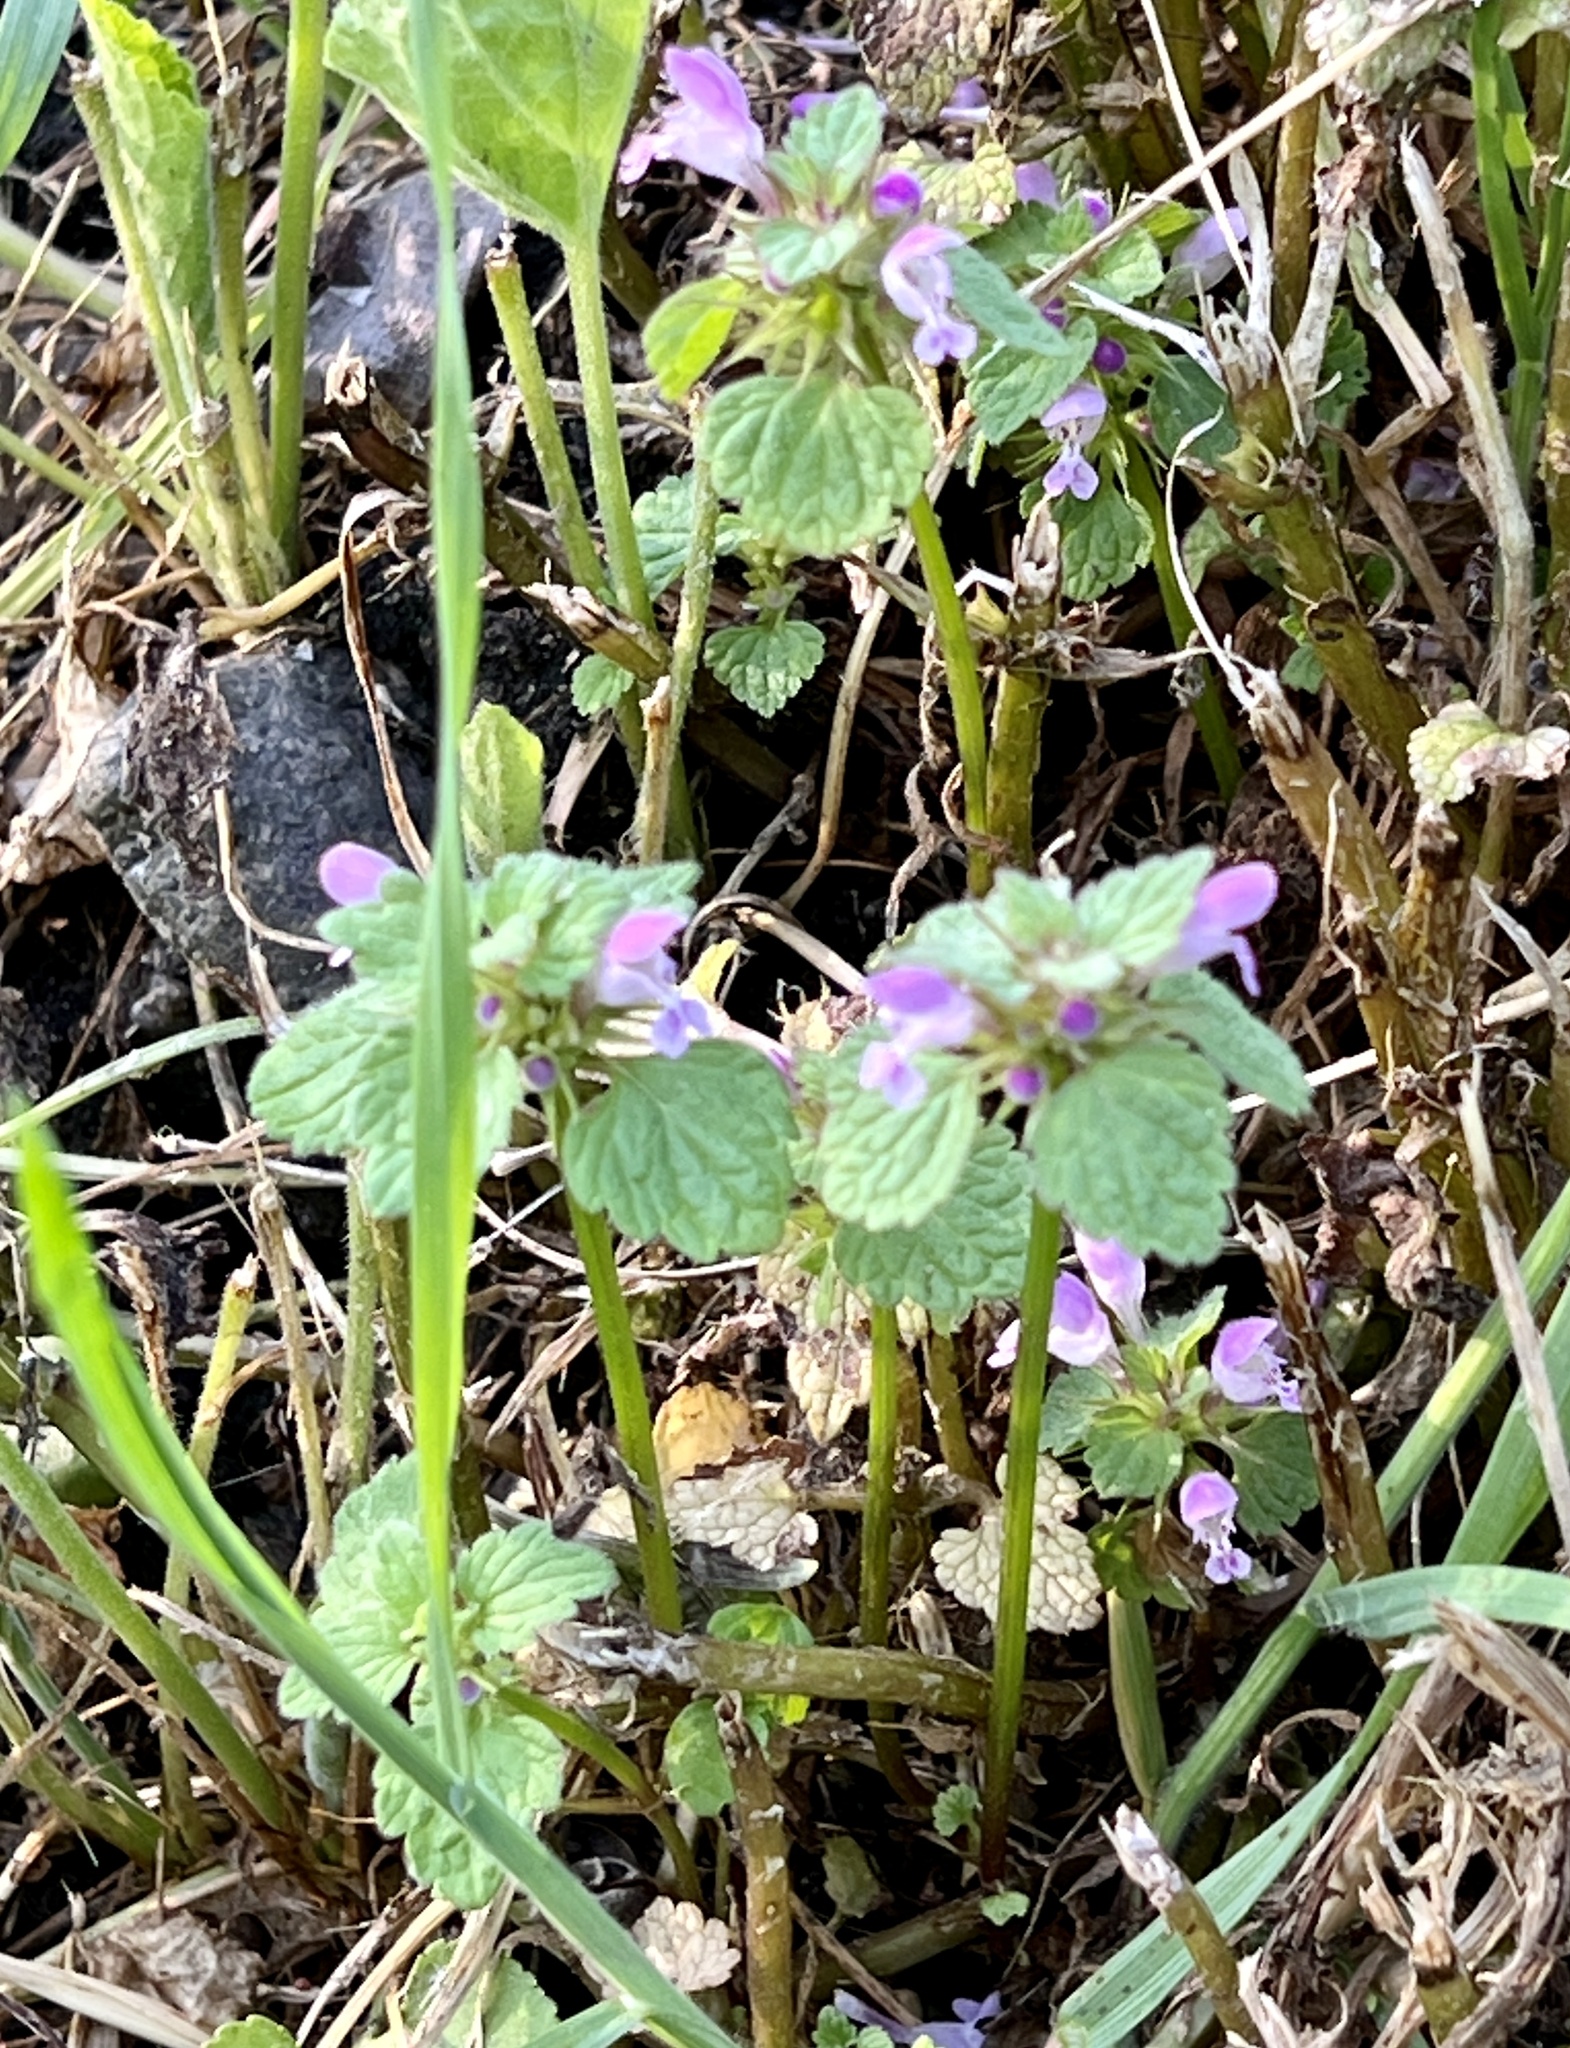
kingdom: Plantae
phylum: Tracheophyta
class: Magnoliopsida
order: Lamiales
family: Lamiaceae
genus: Lamium
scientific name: Lamium purpureum
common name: Red dead-nettle
